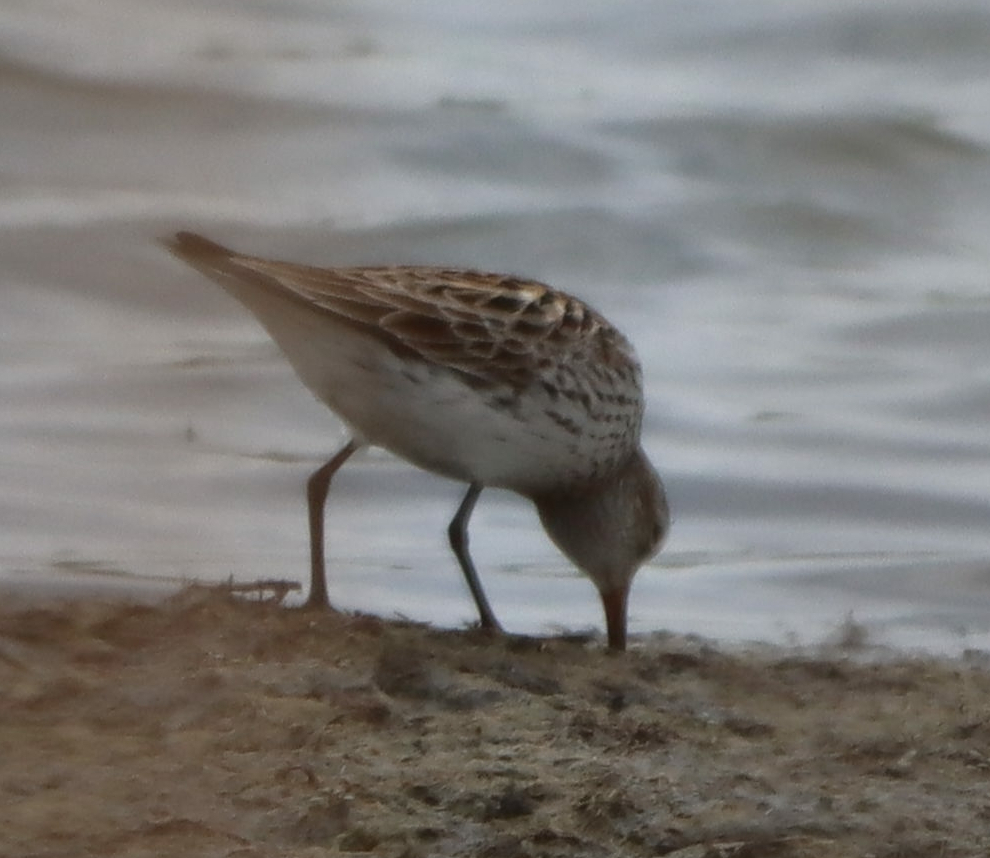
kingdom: Animalia
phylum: Chordata
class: Aves
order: Charadriiformes
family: Scolopacidae
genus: Calidris
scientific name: Calidris fuscicollis
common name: White-rumped sandpiper
